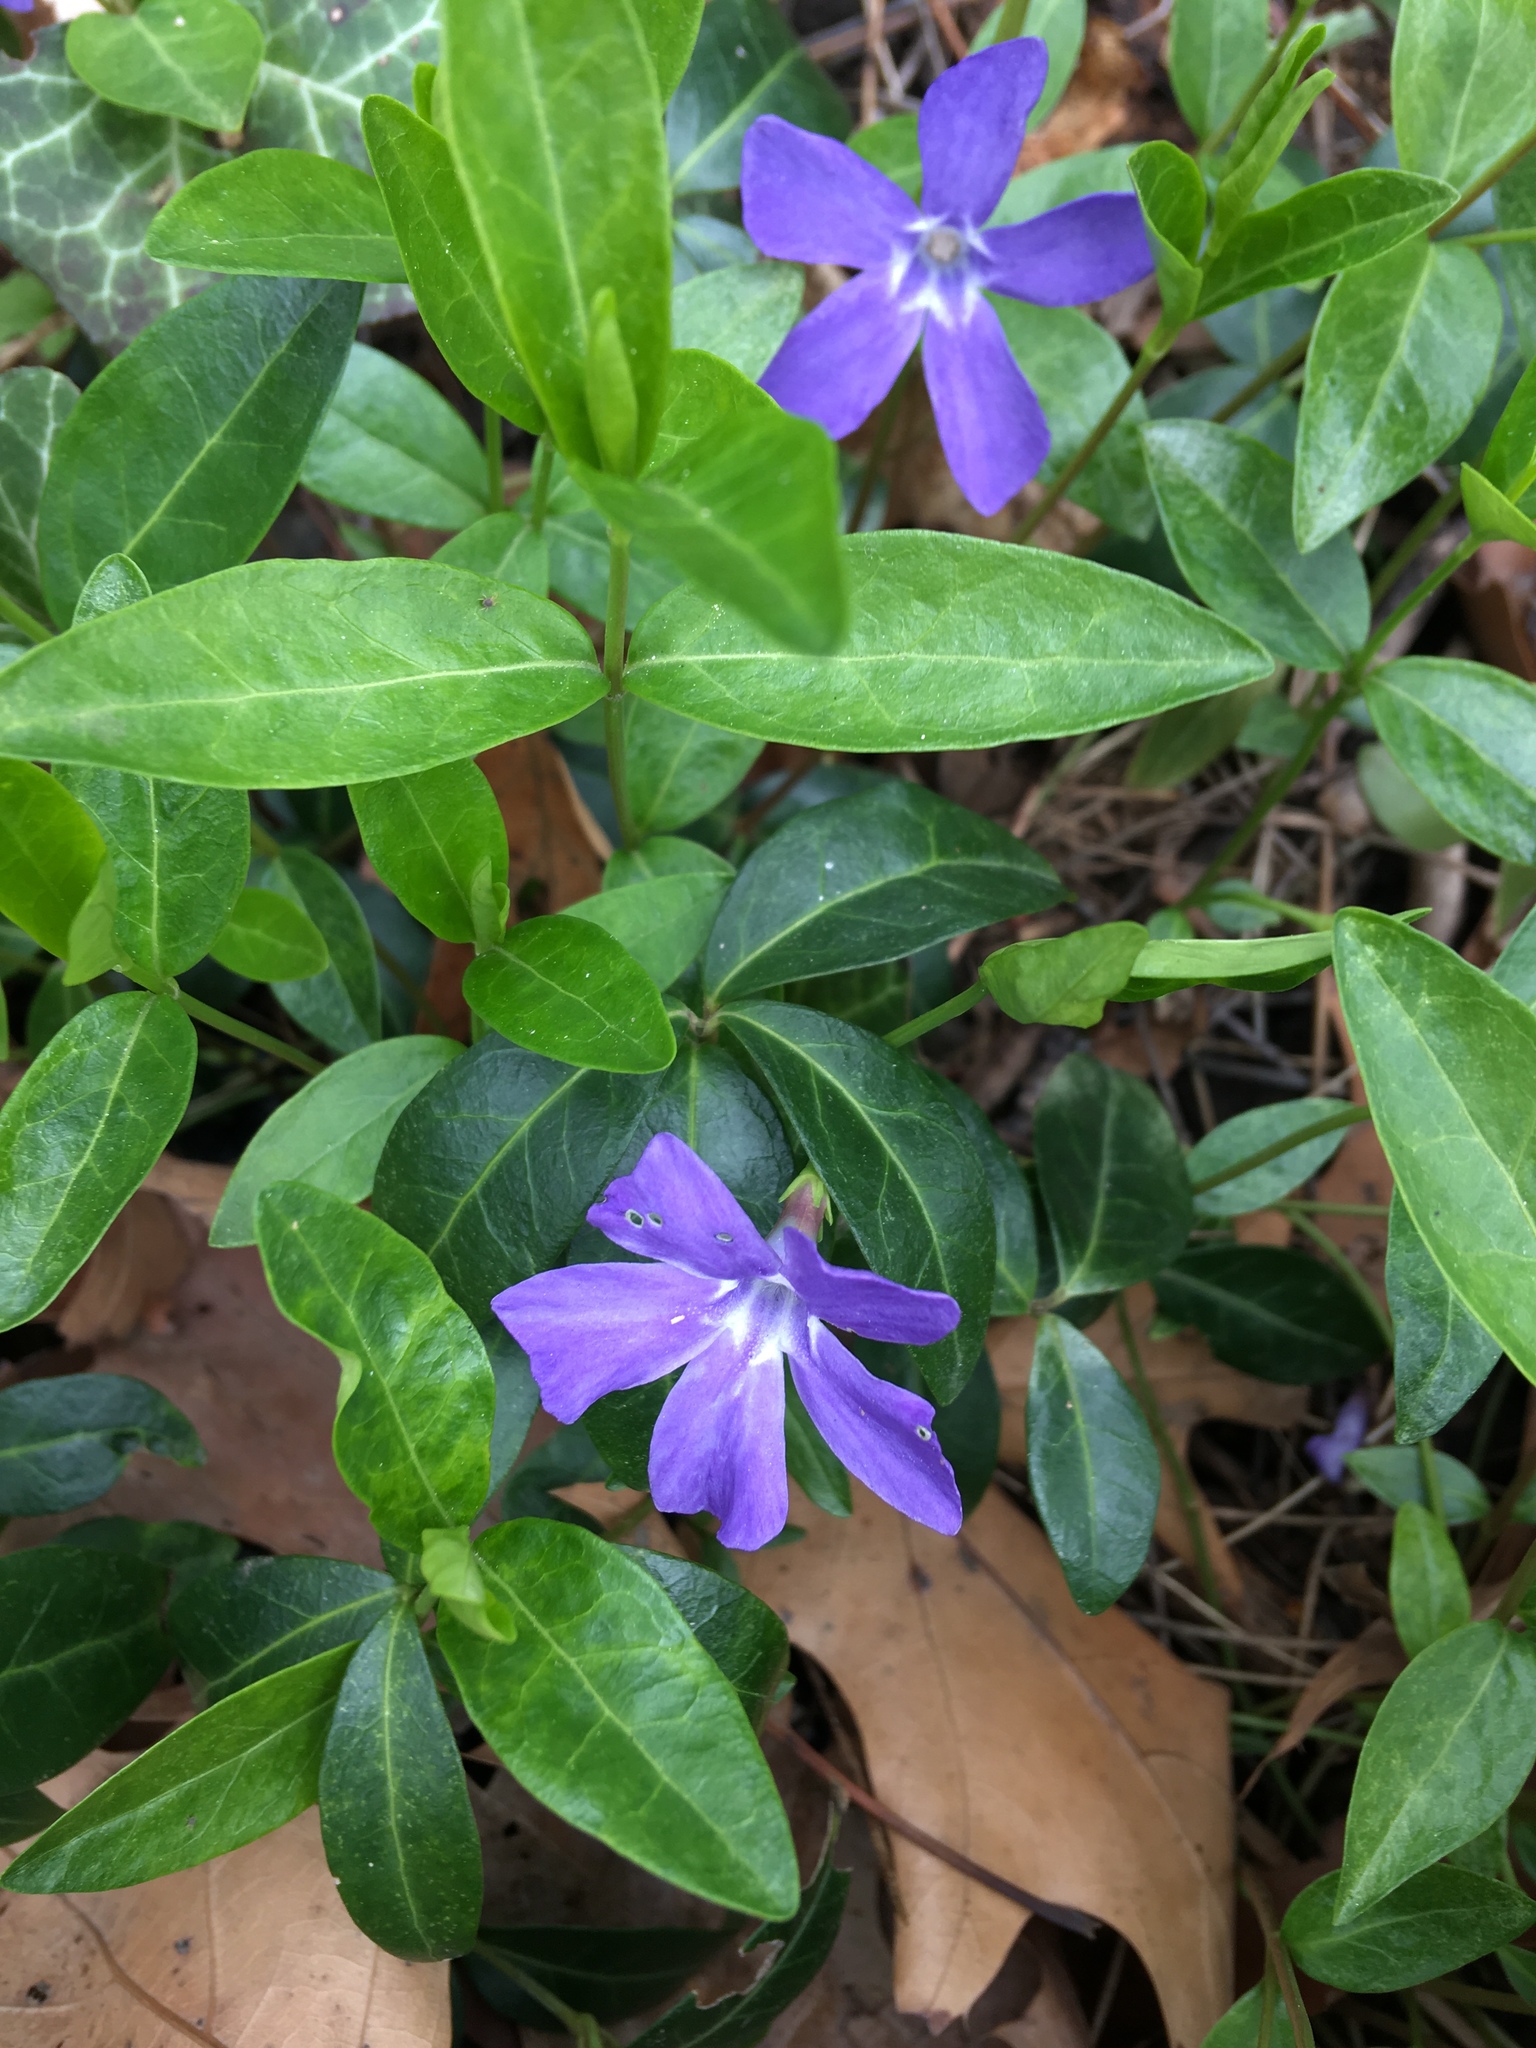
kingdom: Plantae
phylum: Tracheophyta
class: Magnoliopsida
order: Gentianales
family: Apocynaceae
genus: Vinca
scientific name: Vinca minor
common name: Lesser periwinkle
